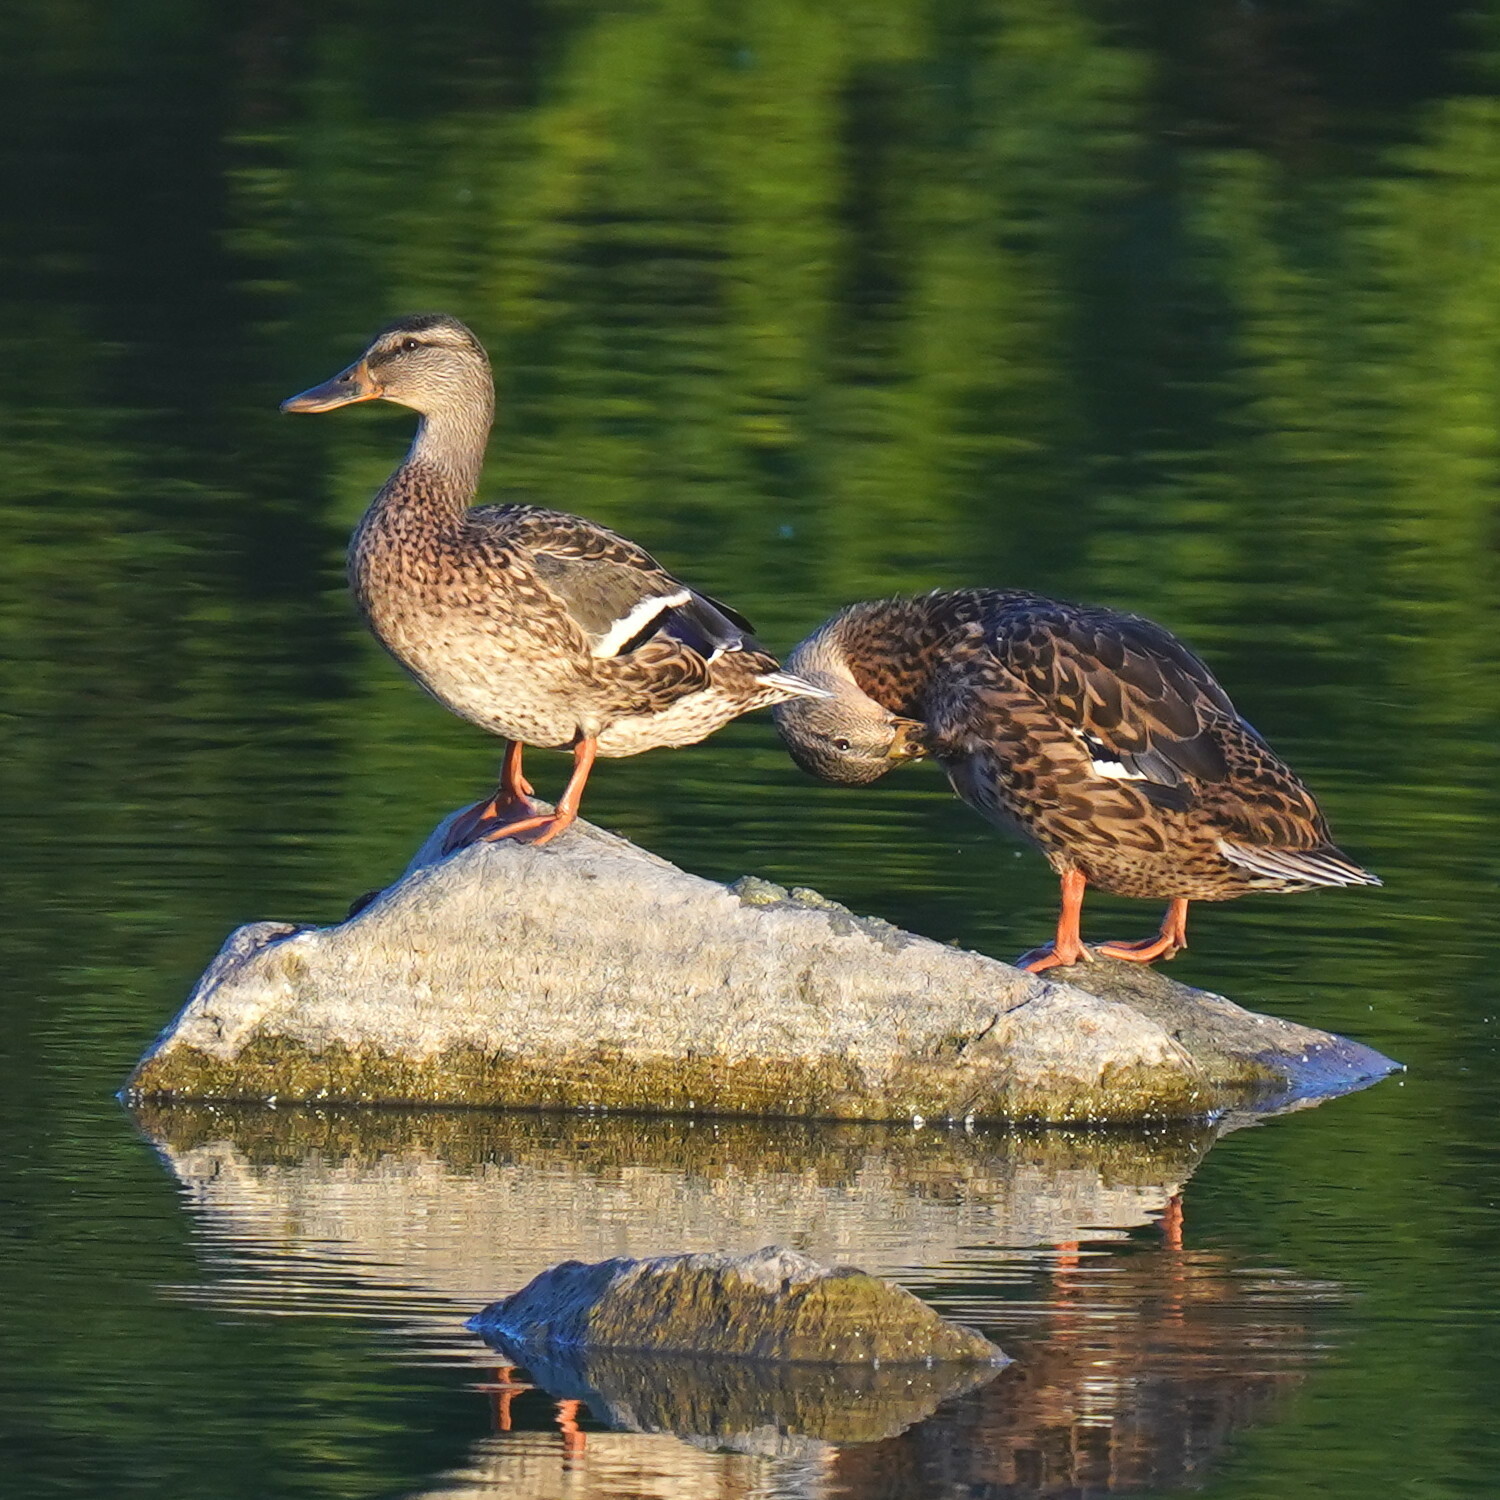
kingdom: Animalia
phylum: Chordata
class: Aves
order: Anseriformes
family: Anatidae
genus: Anas
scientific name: Anas platyrhynchos
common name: Mallard
